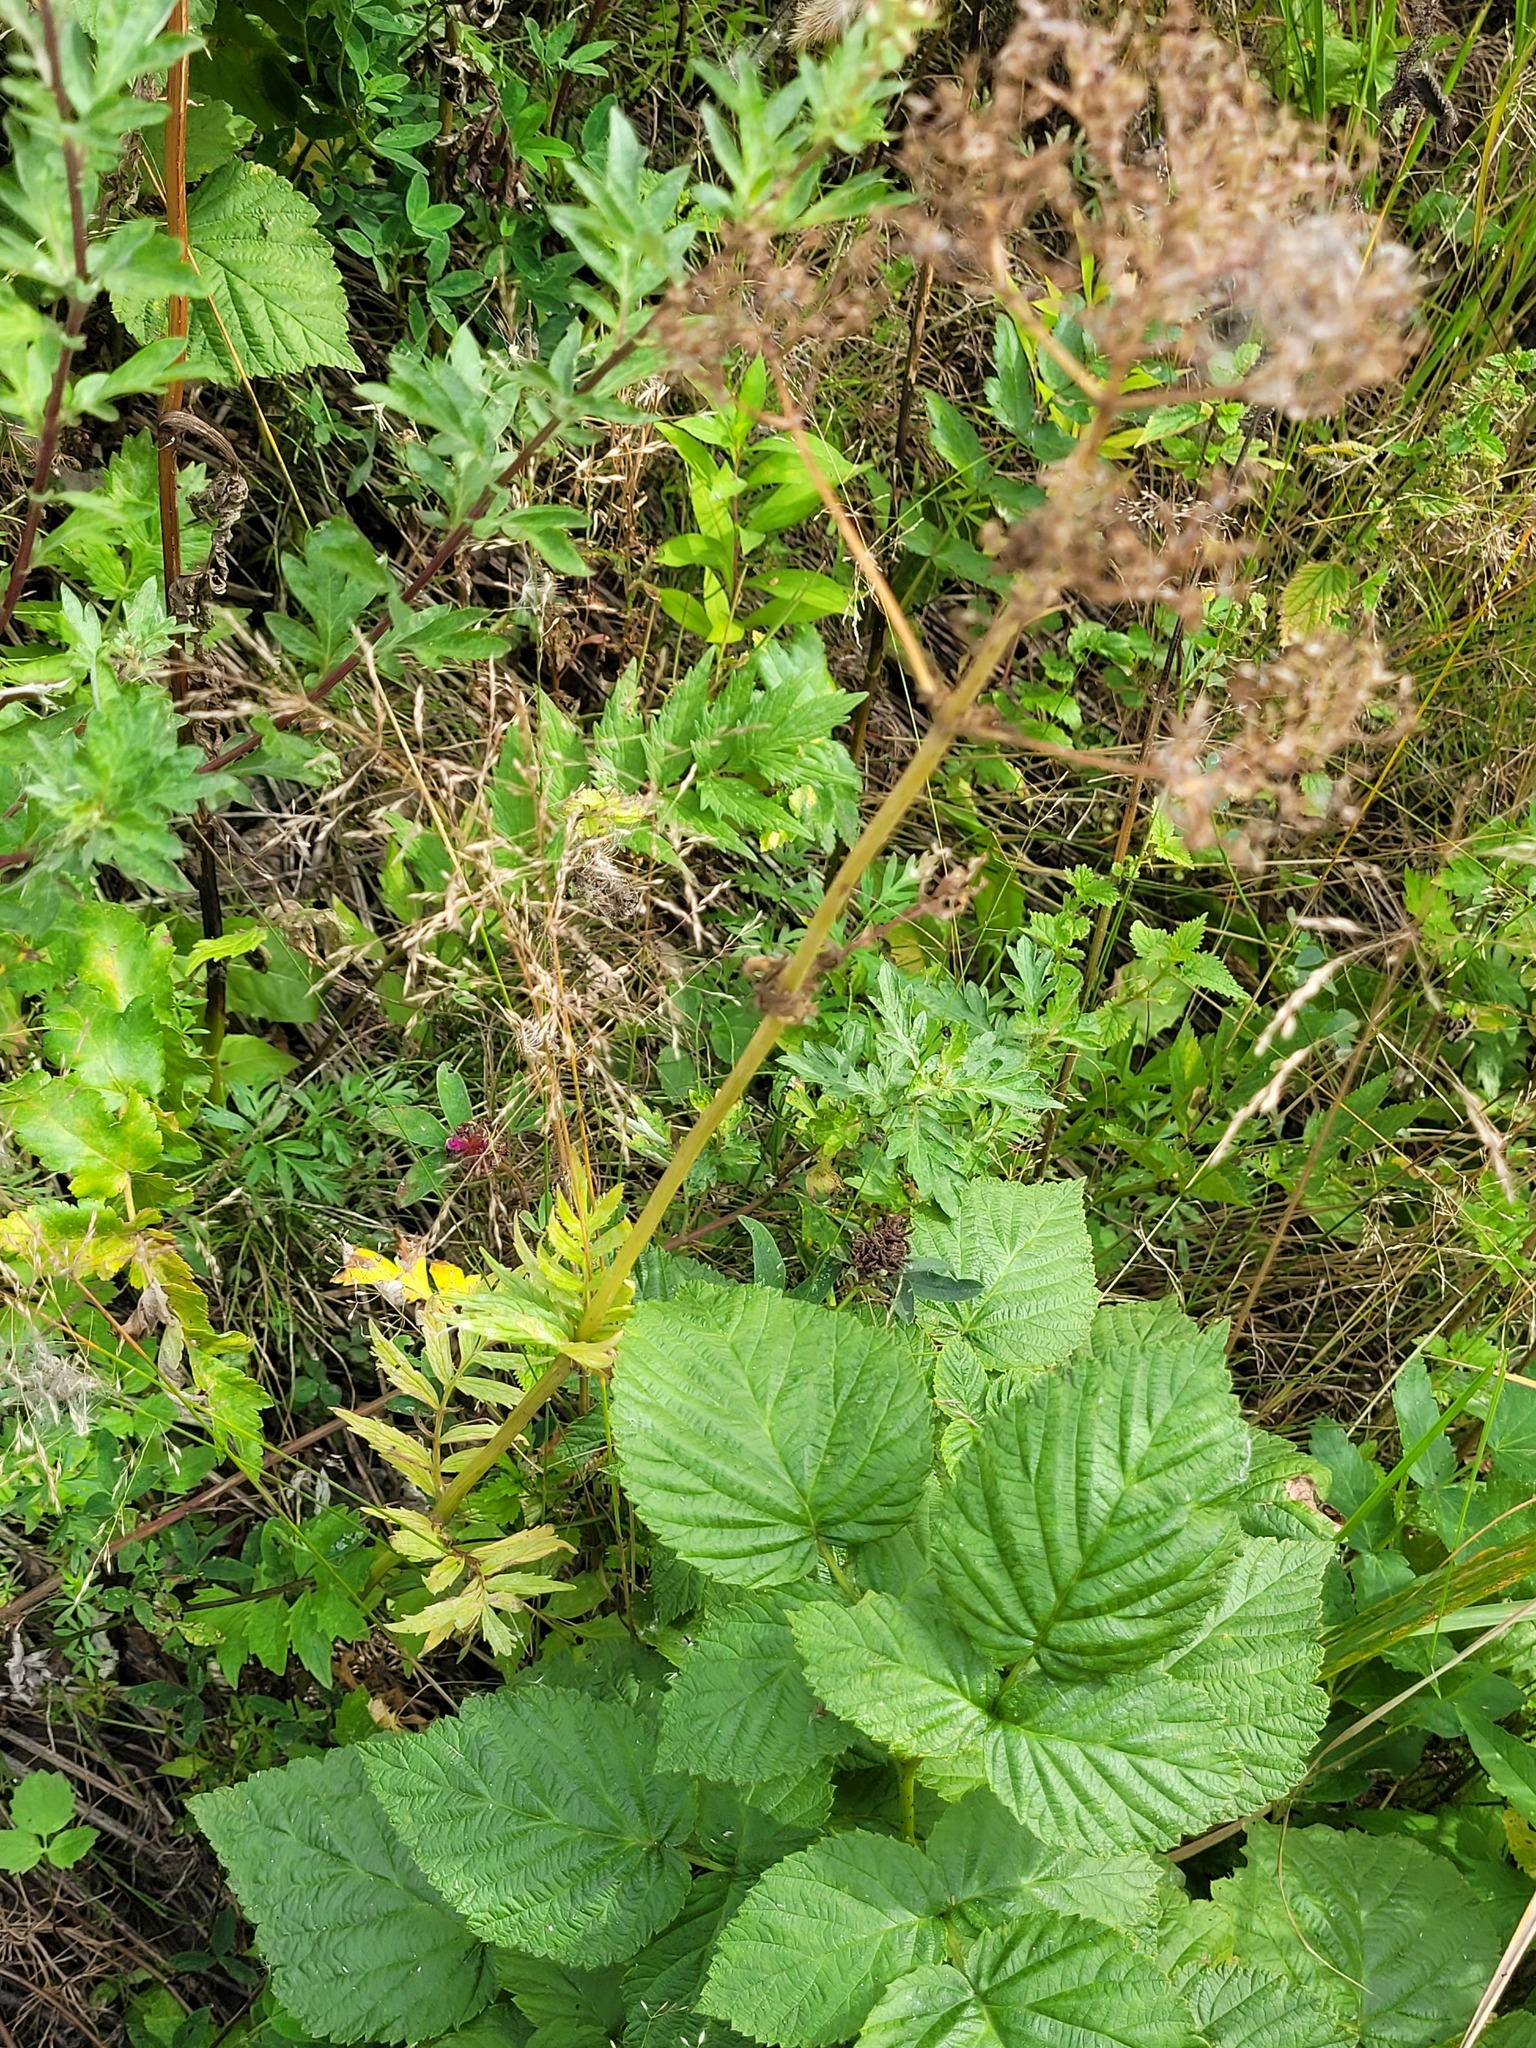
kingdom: Plantae
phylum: Tracheophyta
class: Magnoliopsida
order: Dipsacales
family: Caprifoliaceae
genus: Valeriana
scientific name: Valeriana officinalis
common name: Common valerian
